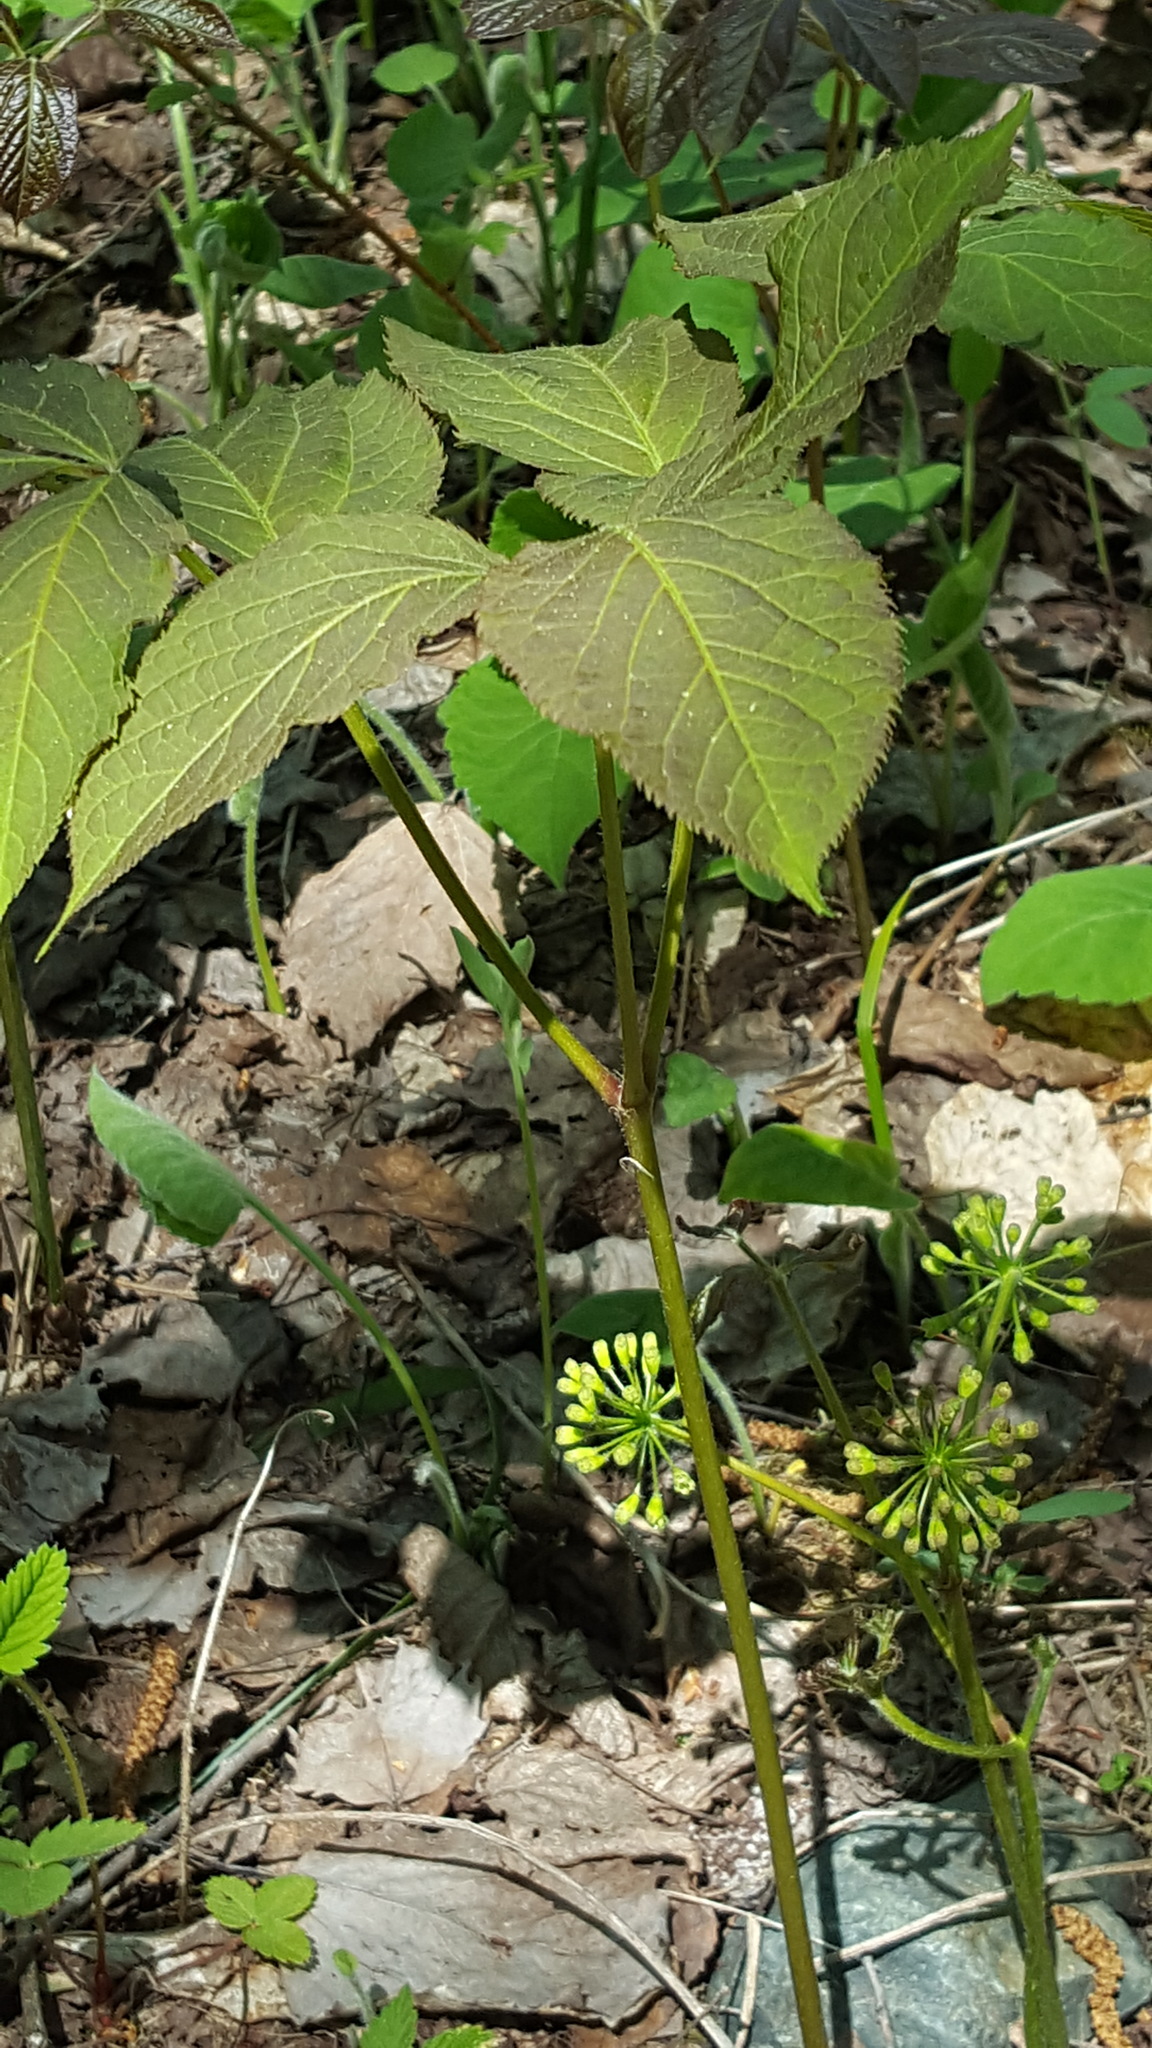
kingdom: Plantae
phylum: Tracheophyta
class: Magnoliopsida
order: Apiales
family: Araliaceae
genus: Aralia
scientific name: Aralia nudicaulis
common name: Wild sarsaparilla
